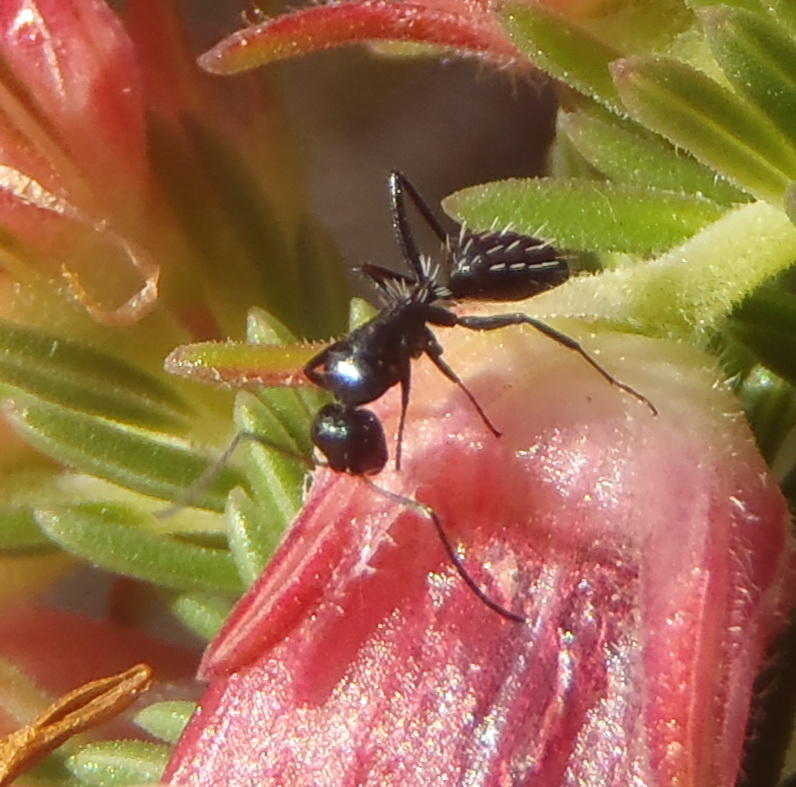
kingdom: Animalia
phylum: Arthropoda
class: Insecta
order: Hymenoptera
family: Formicidae
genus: Camponotus
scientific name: Camponotus niveosetosus
